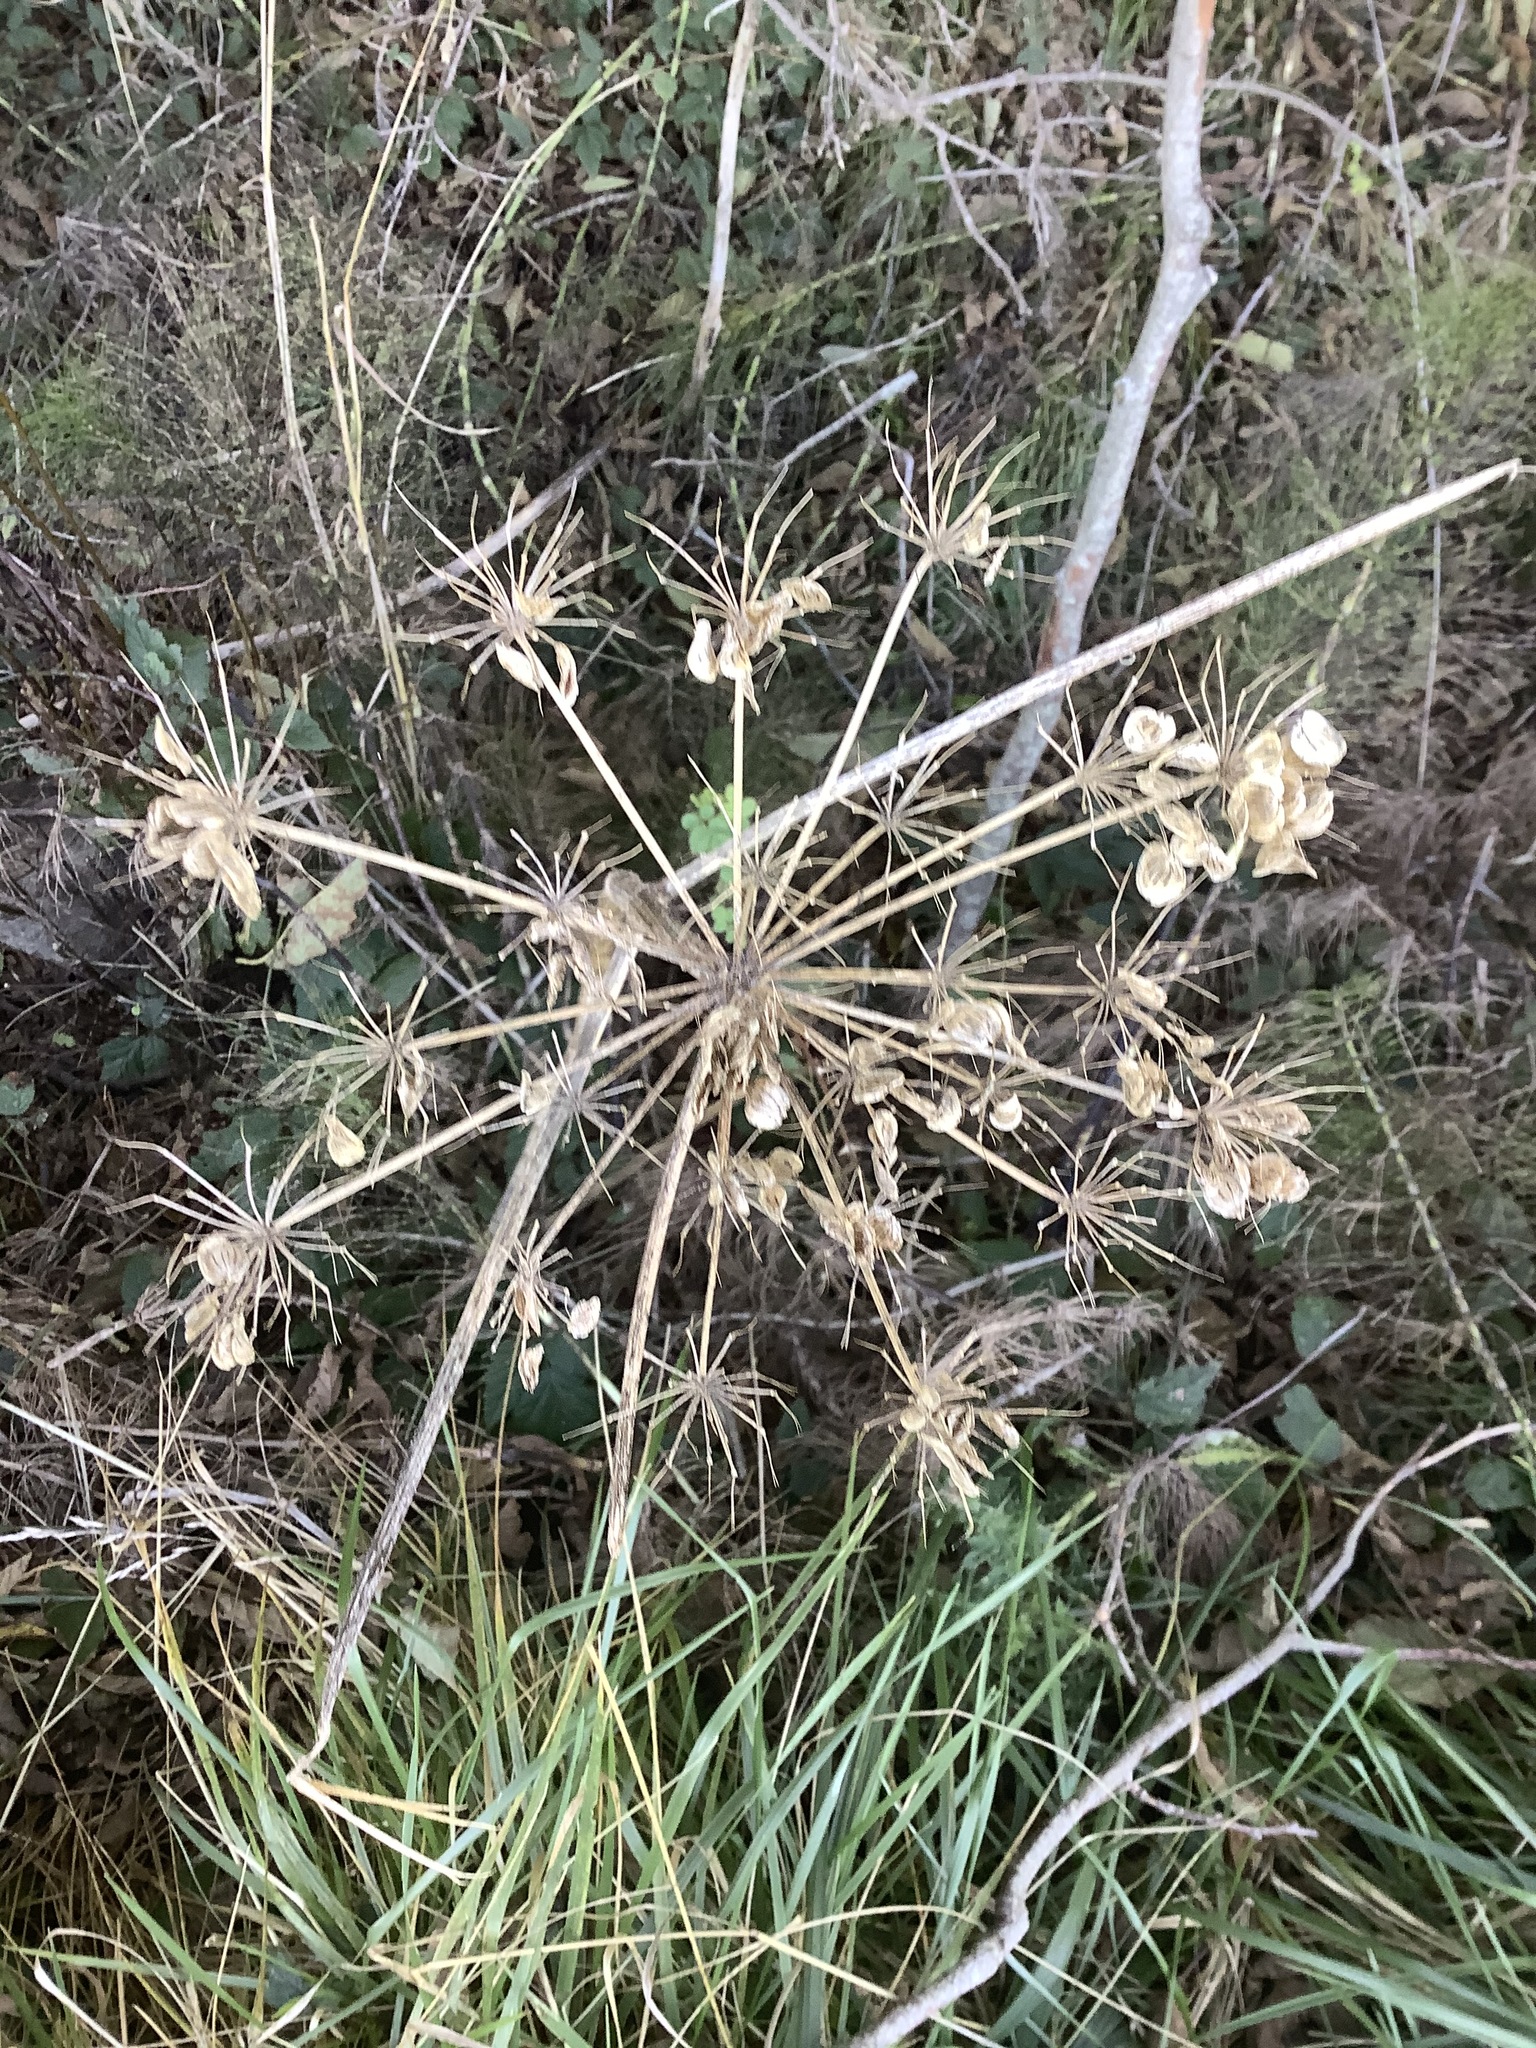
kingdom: Plantae
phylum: Tracheophyta
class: Magnoliopsida
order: Apiales
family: Apiaceae
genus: Heracleum
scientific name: Heracleum maximum
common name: American cow parsnip
